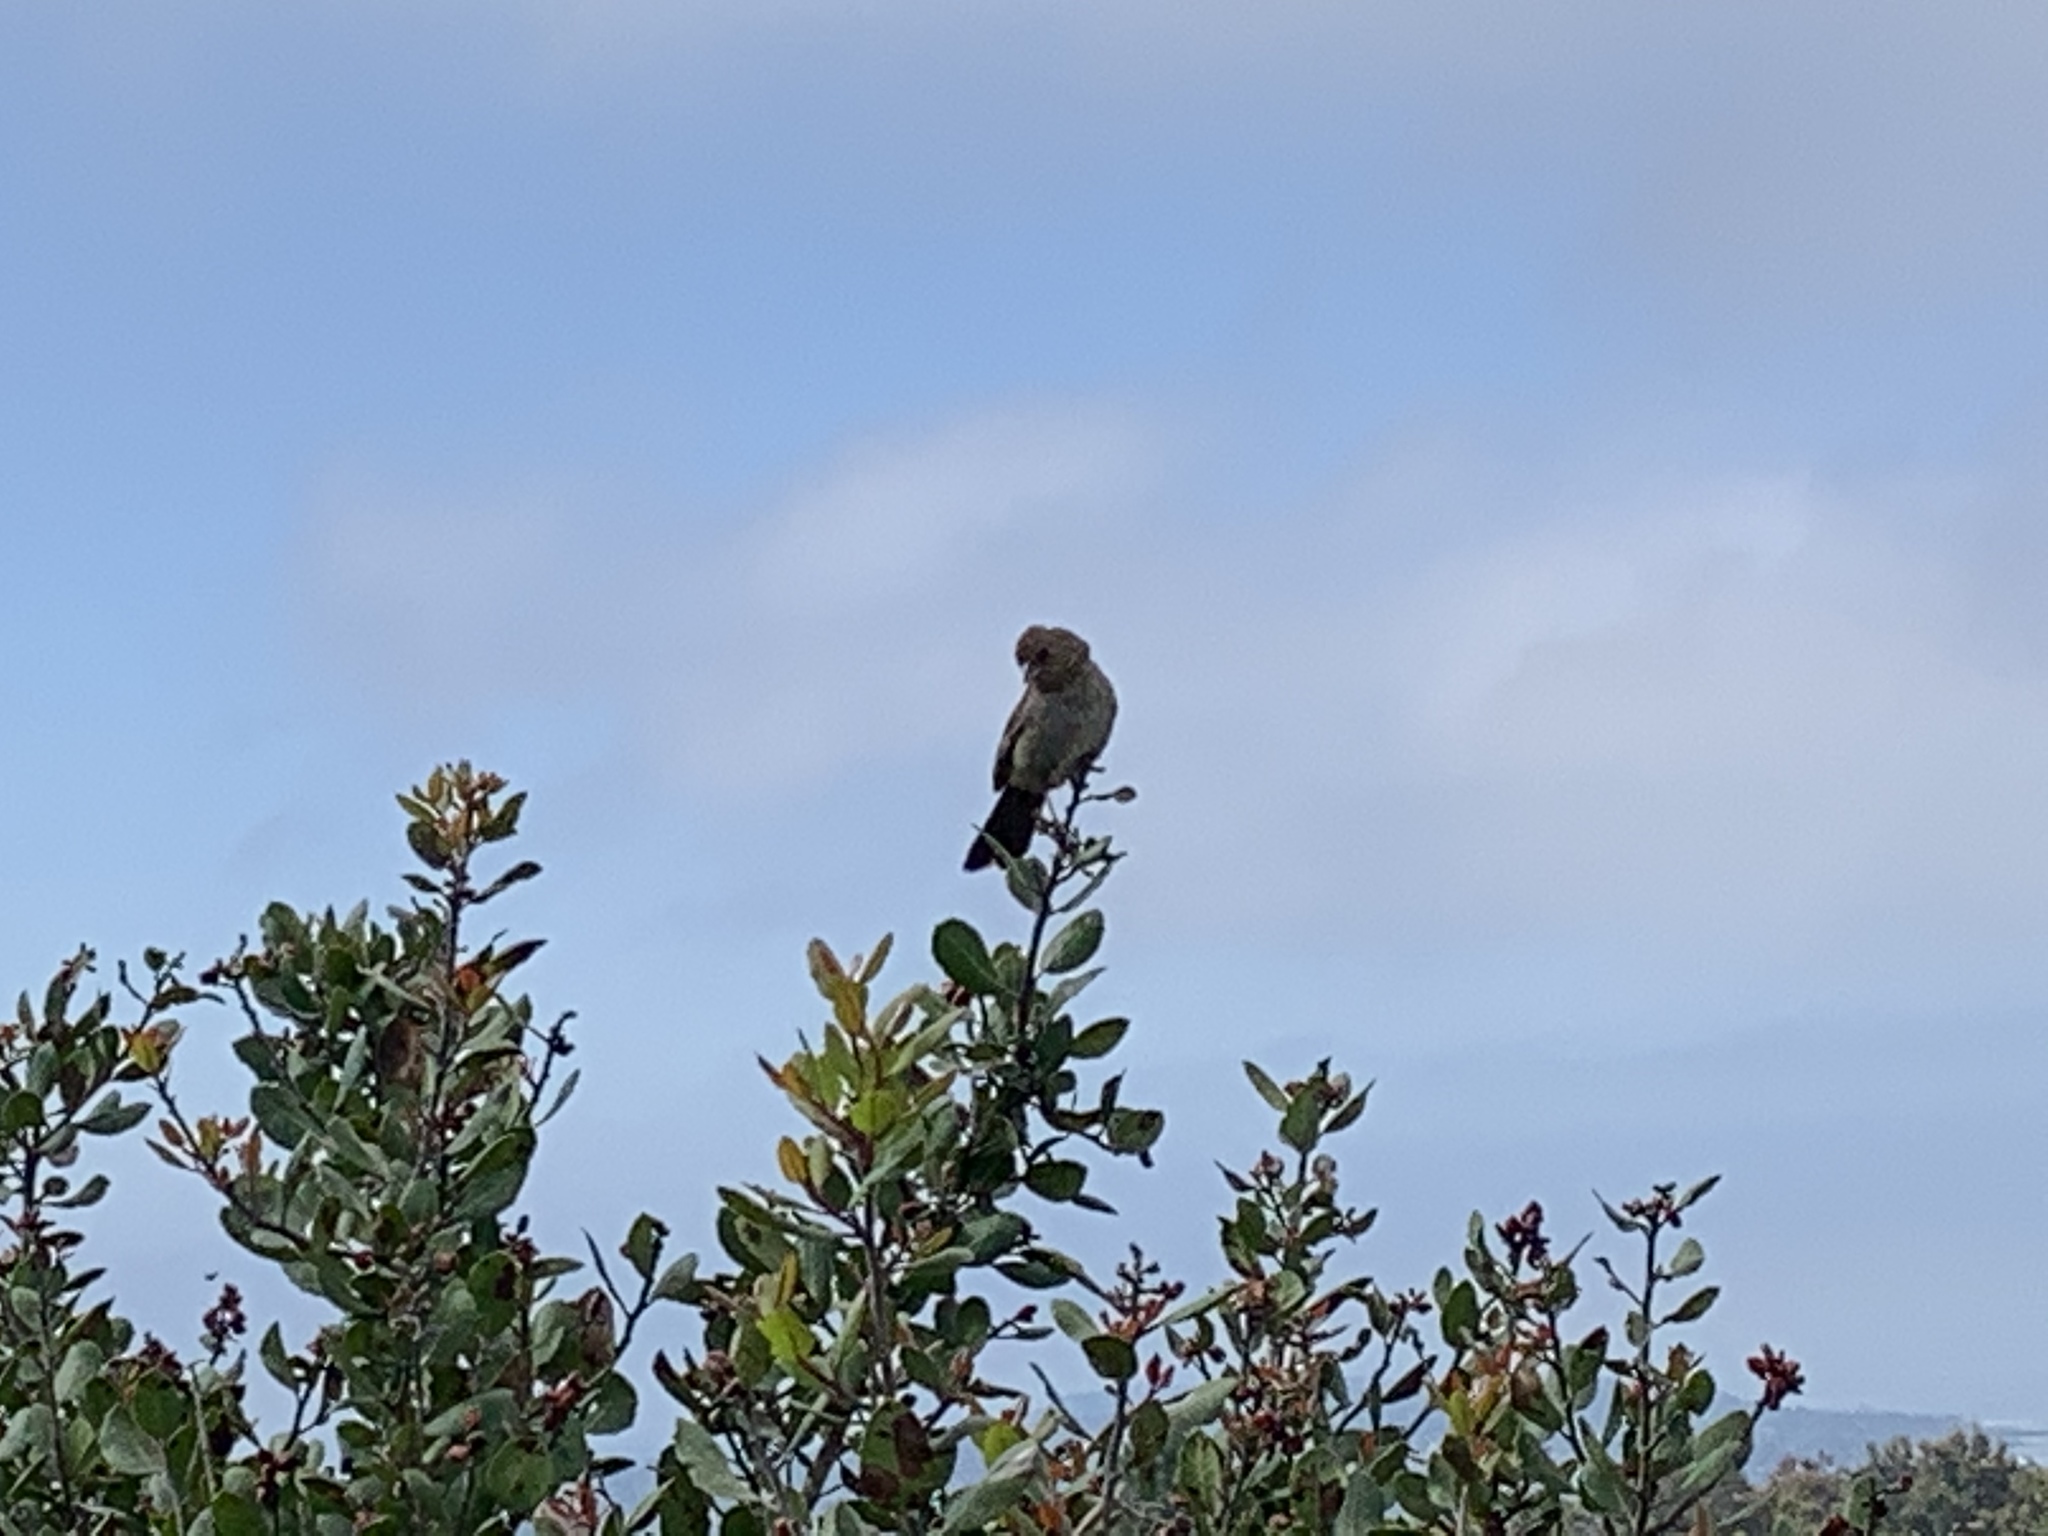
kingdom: Animalia
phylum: Chordata
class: Aves
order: Passeriformes
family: Passerellidae
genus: Melozone
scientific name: Melozone crissalis
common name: California towhee
